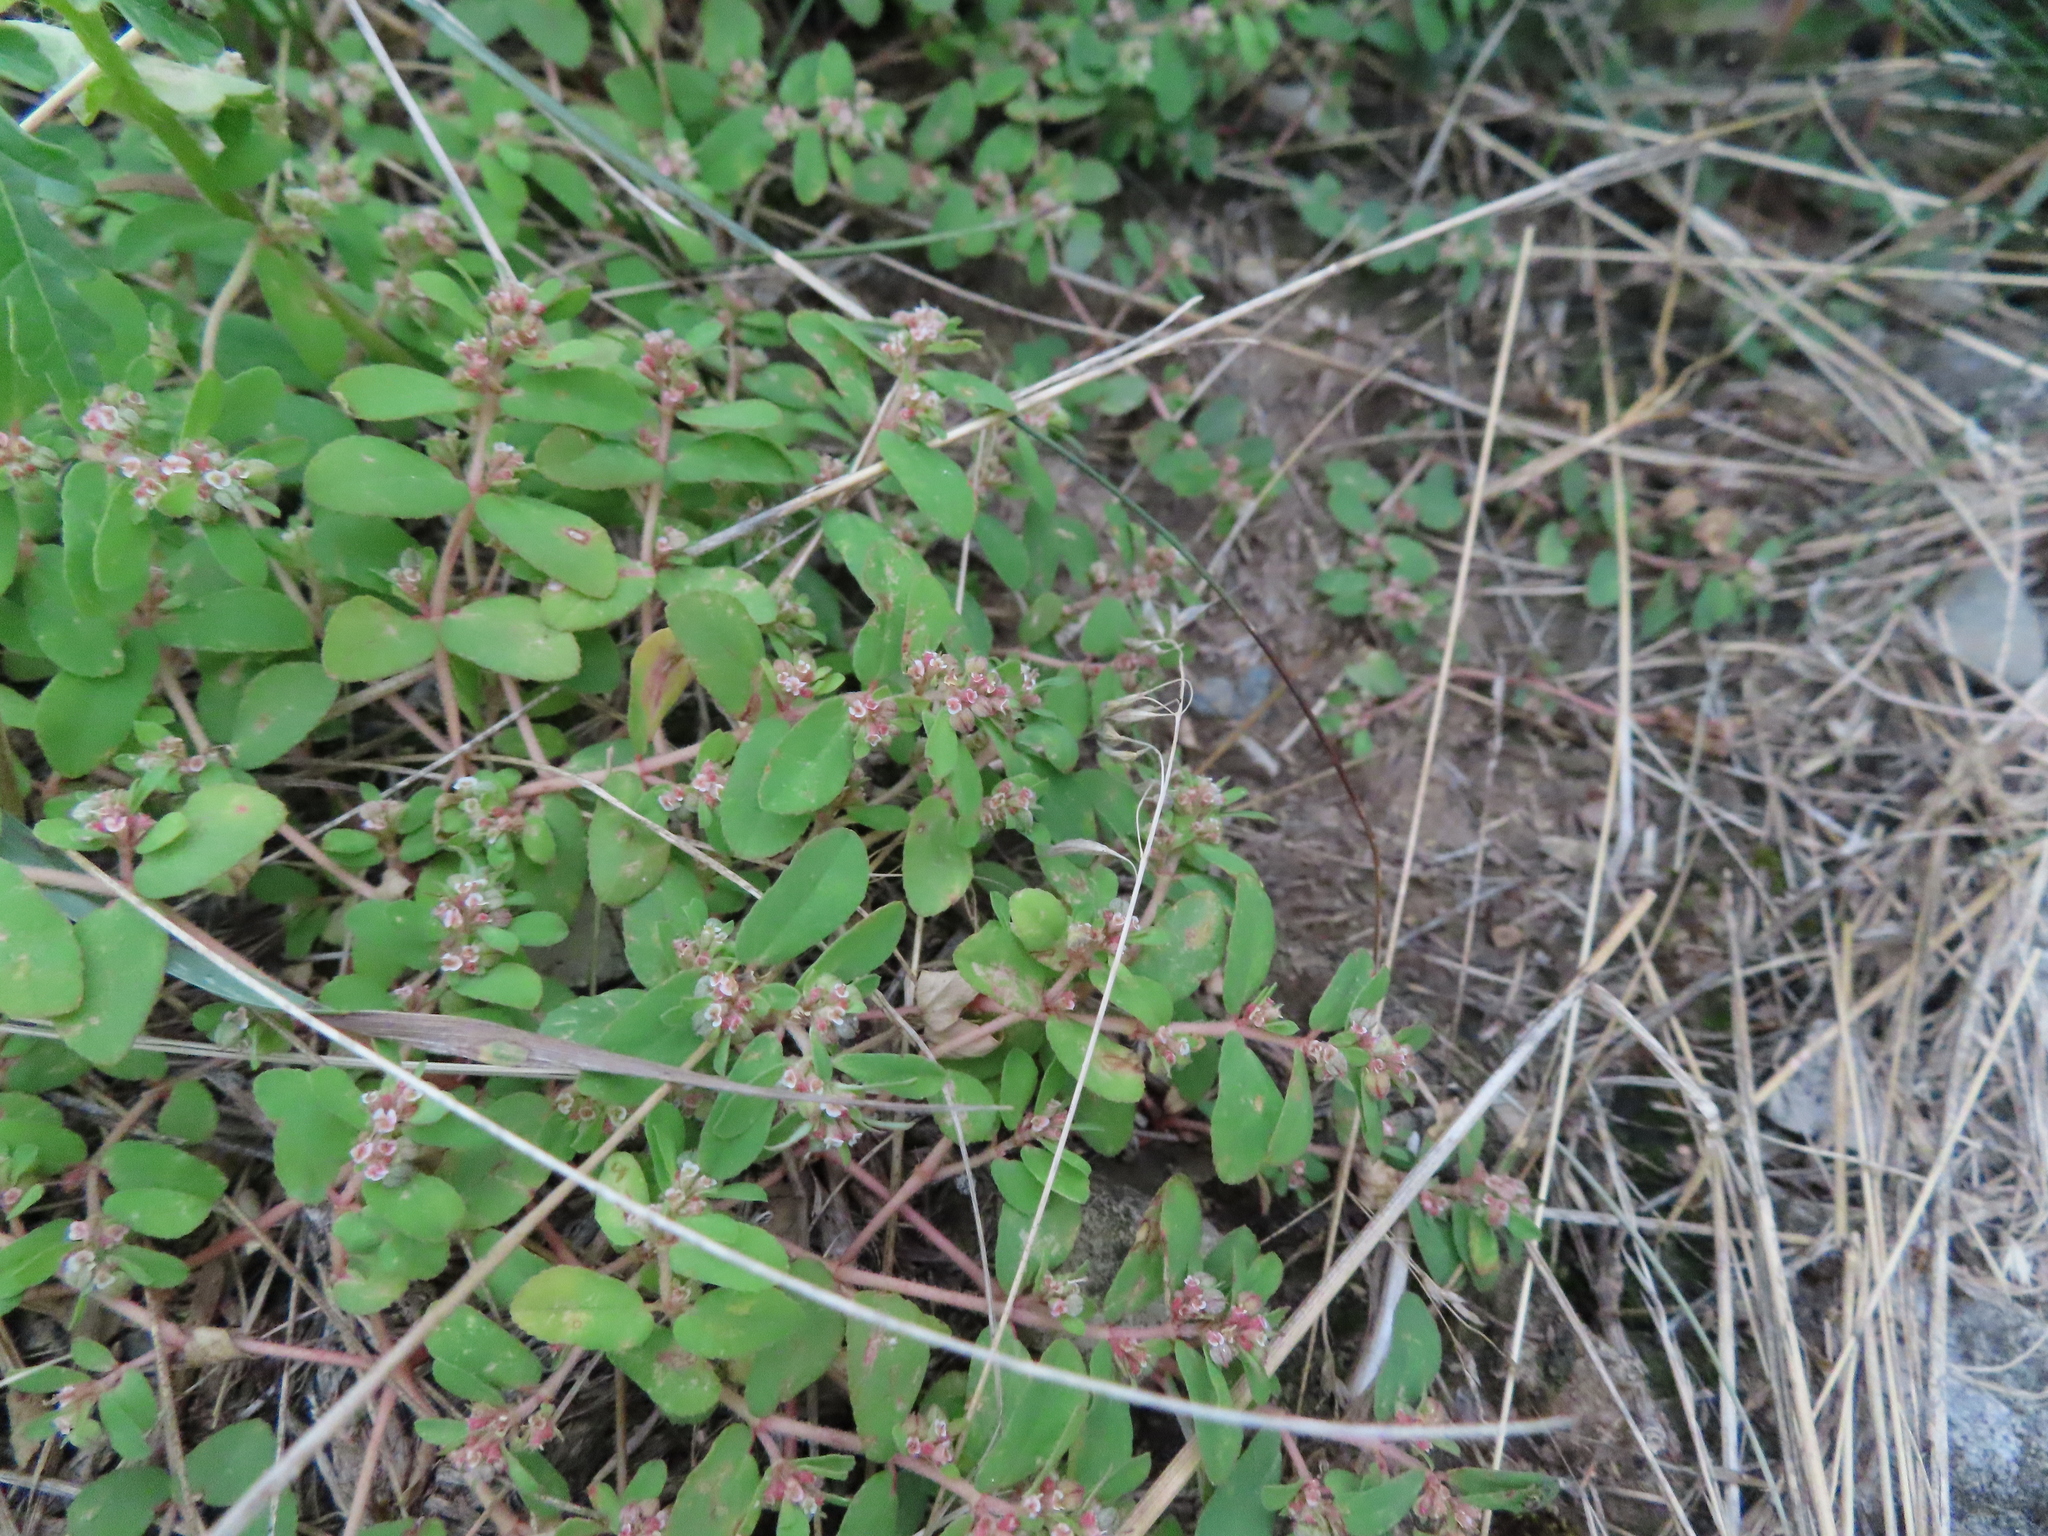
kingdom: Plantae
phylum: Tracheophyta
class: Magnoliopsida
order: Malpighiales
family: Euphorbiaceae
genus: Euphorbia
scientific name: Euphorbia maculata
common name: Spotted spurge
